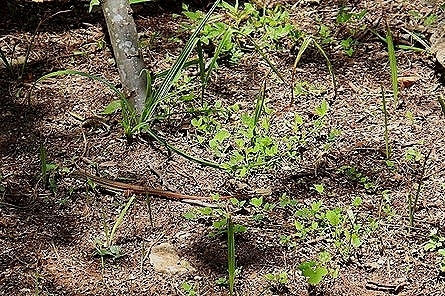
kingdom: Animalia
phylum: Chordata
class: Squamata
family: Teiidae
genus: Aspidoscelis
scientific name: Aspidoscelis angusticeps
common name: Yucatan whiptail
